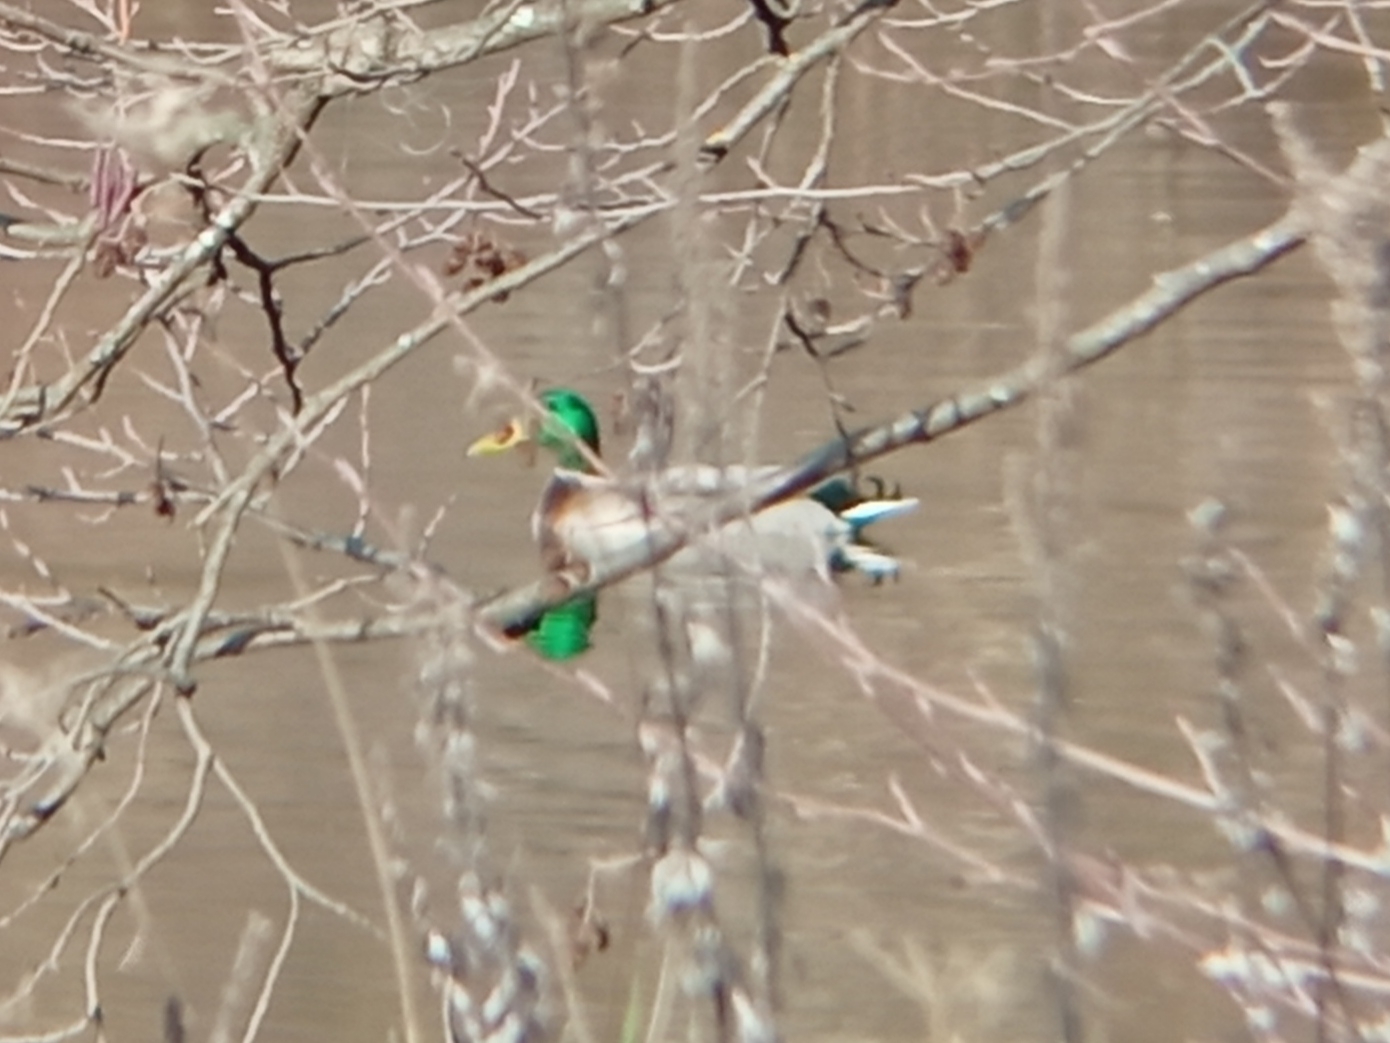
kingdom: Animalia
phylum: Chordata
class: Aves
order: Anseriformes
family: Anatidae
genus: Anas
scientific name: Anas platyrhynchos
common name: Mallard
